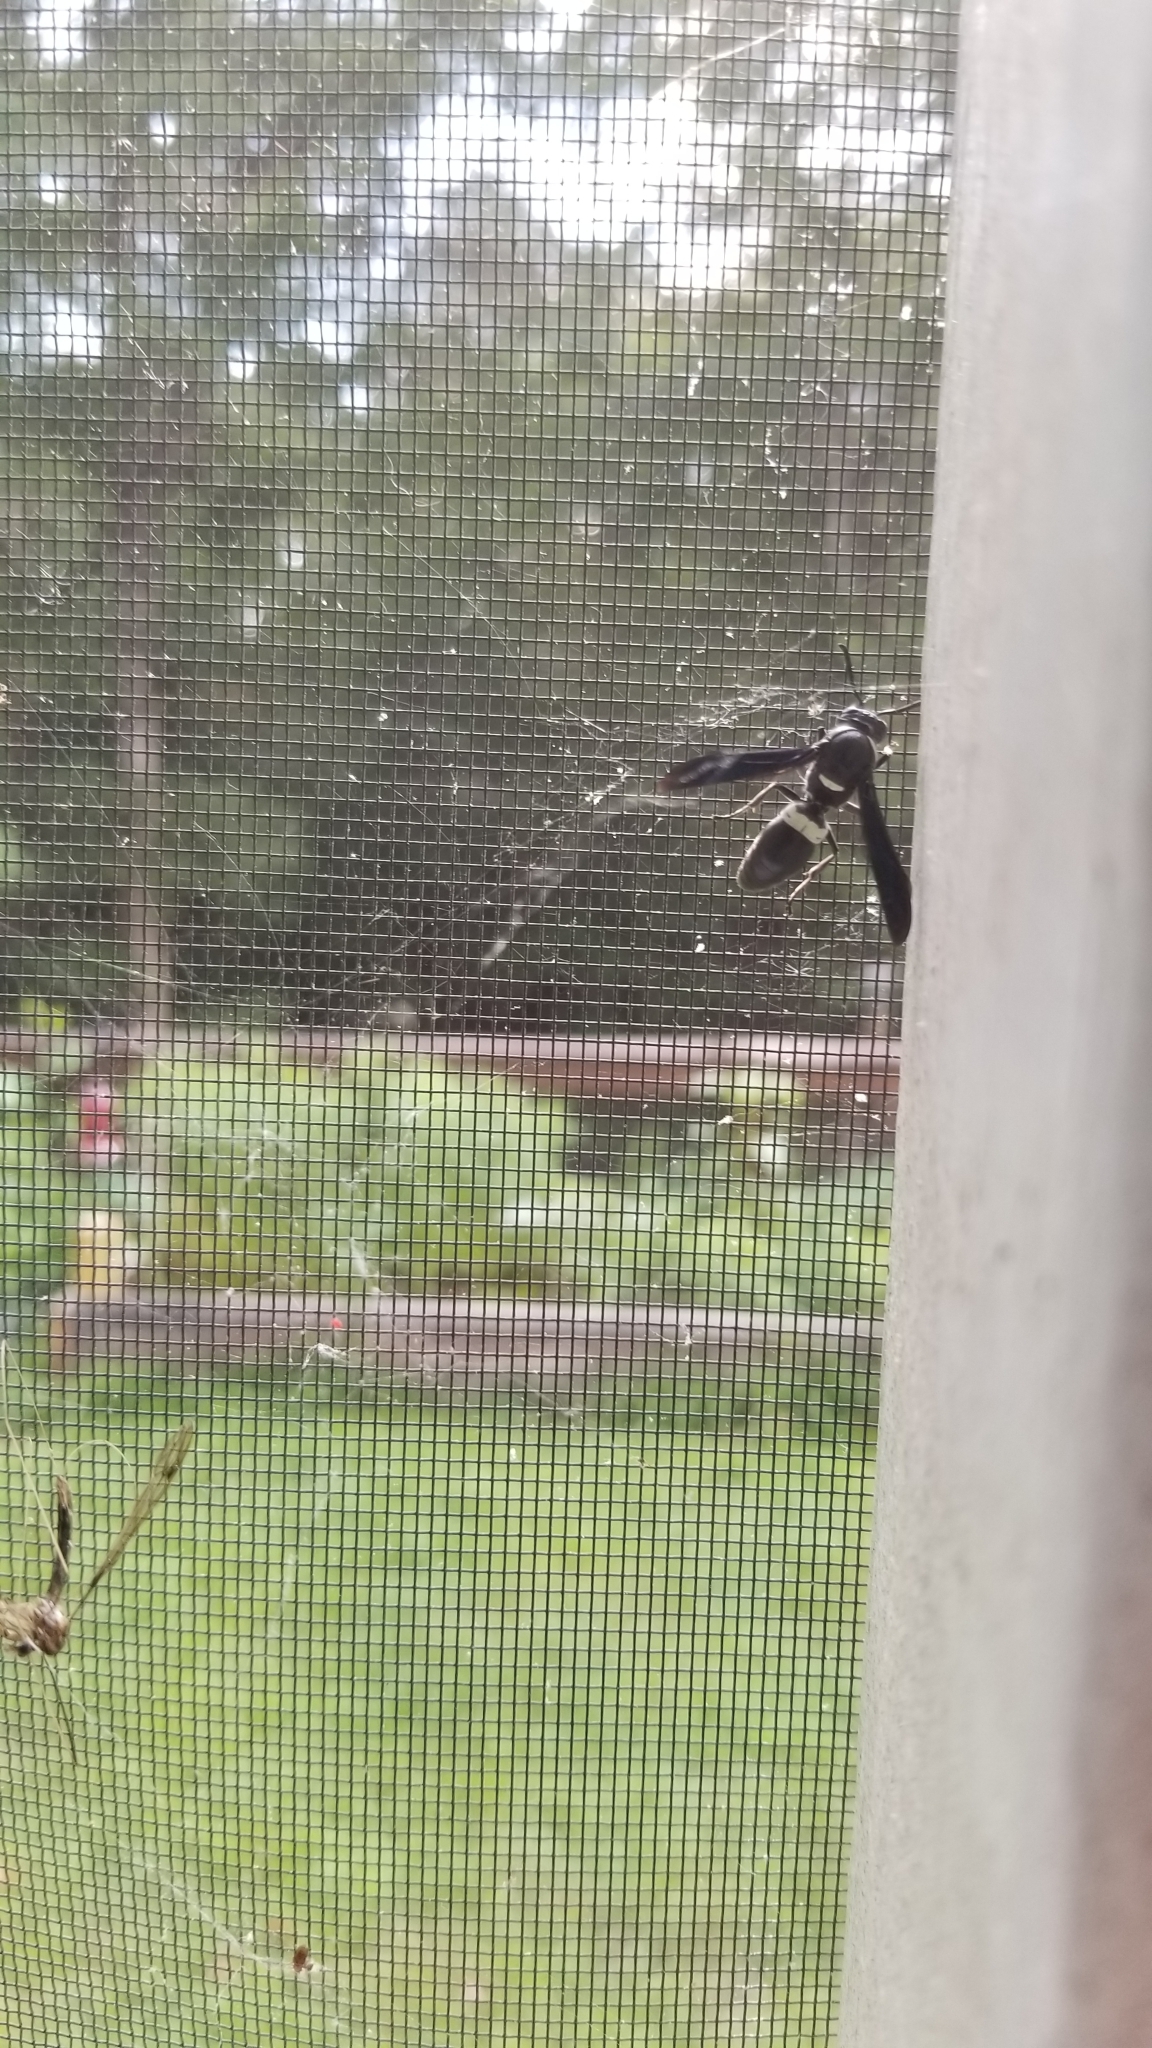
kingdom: Animalia
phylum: Arthropoda
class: Insecta
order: Hymenoptera
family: Eumenidae
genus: Monobia
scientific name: Monobia quadridens
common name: Four-toothed mason wasp
